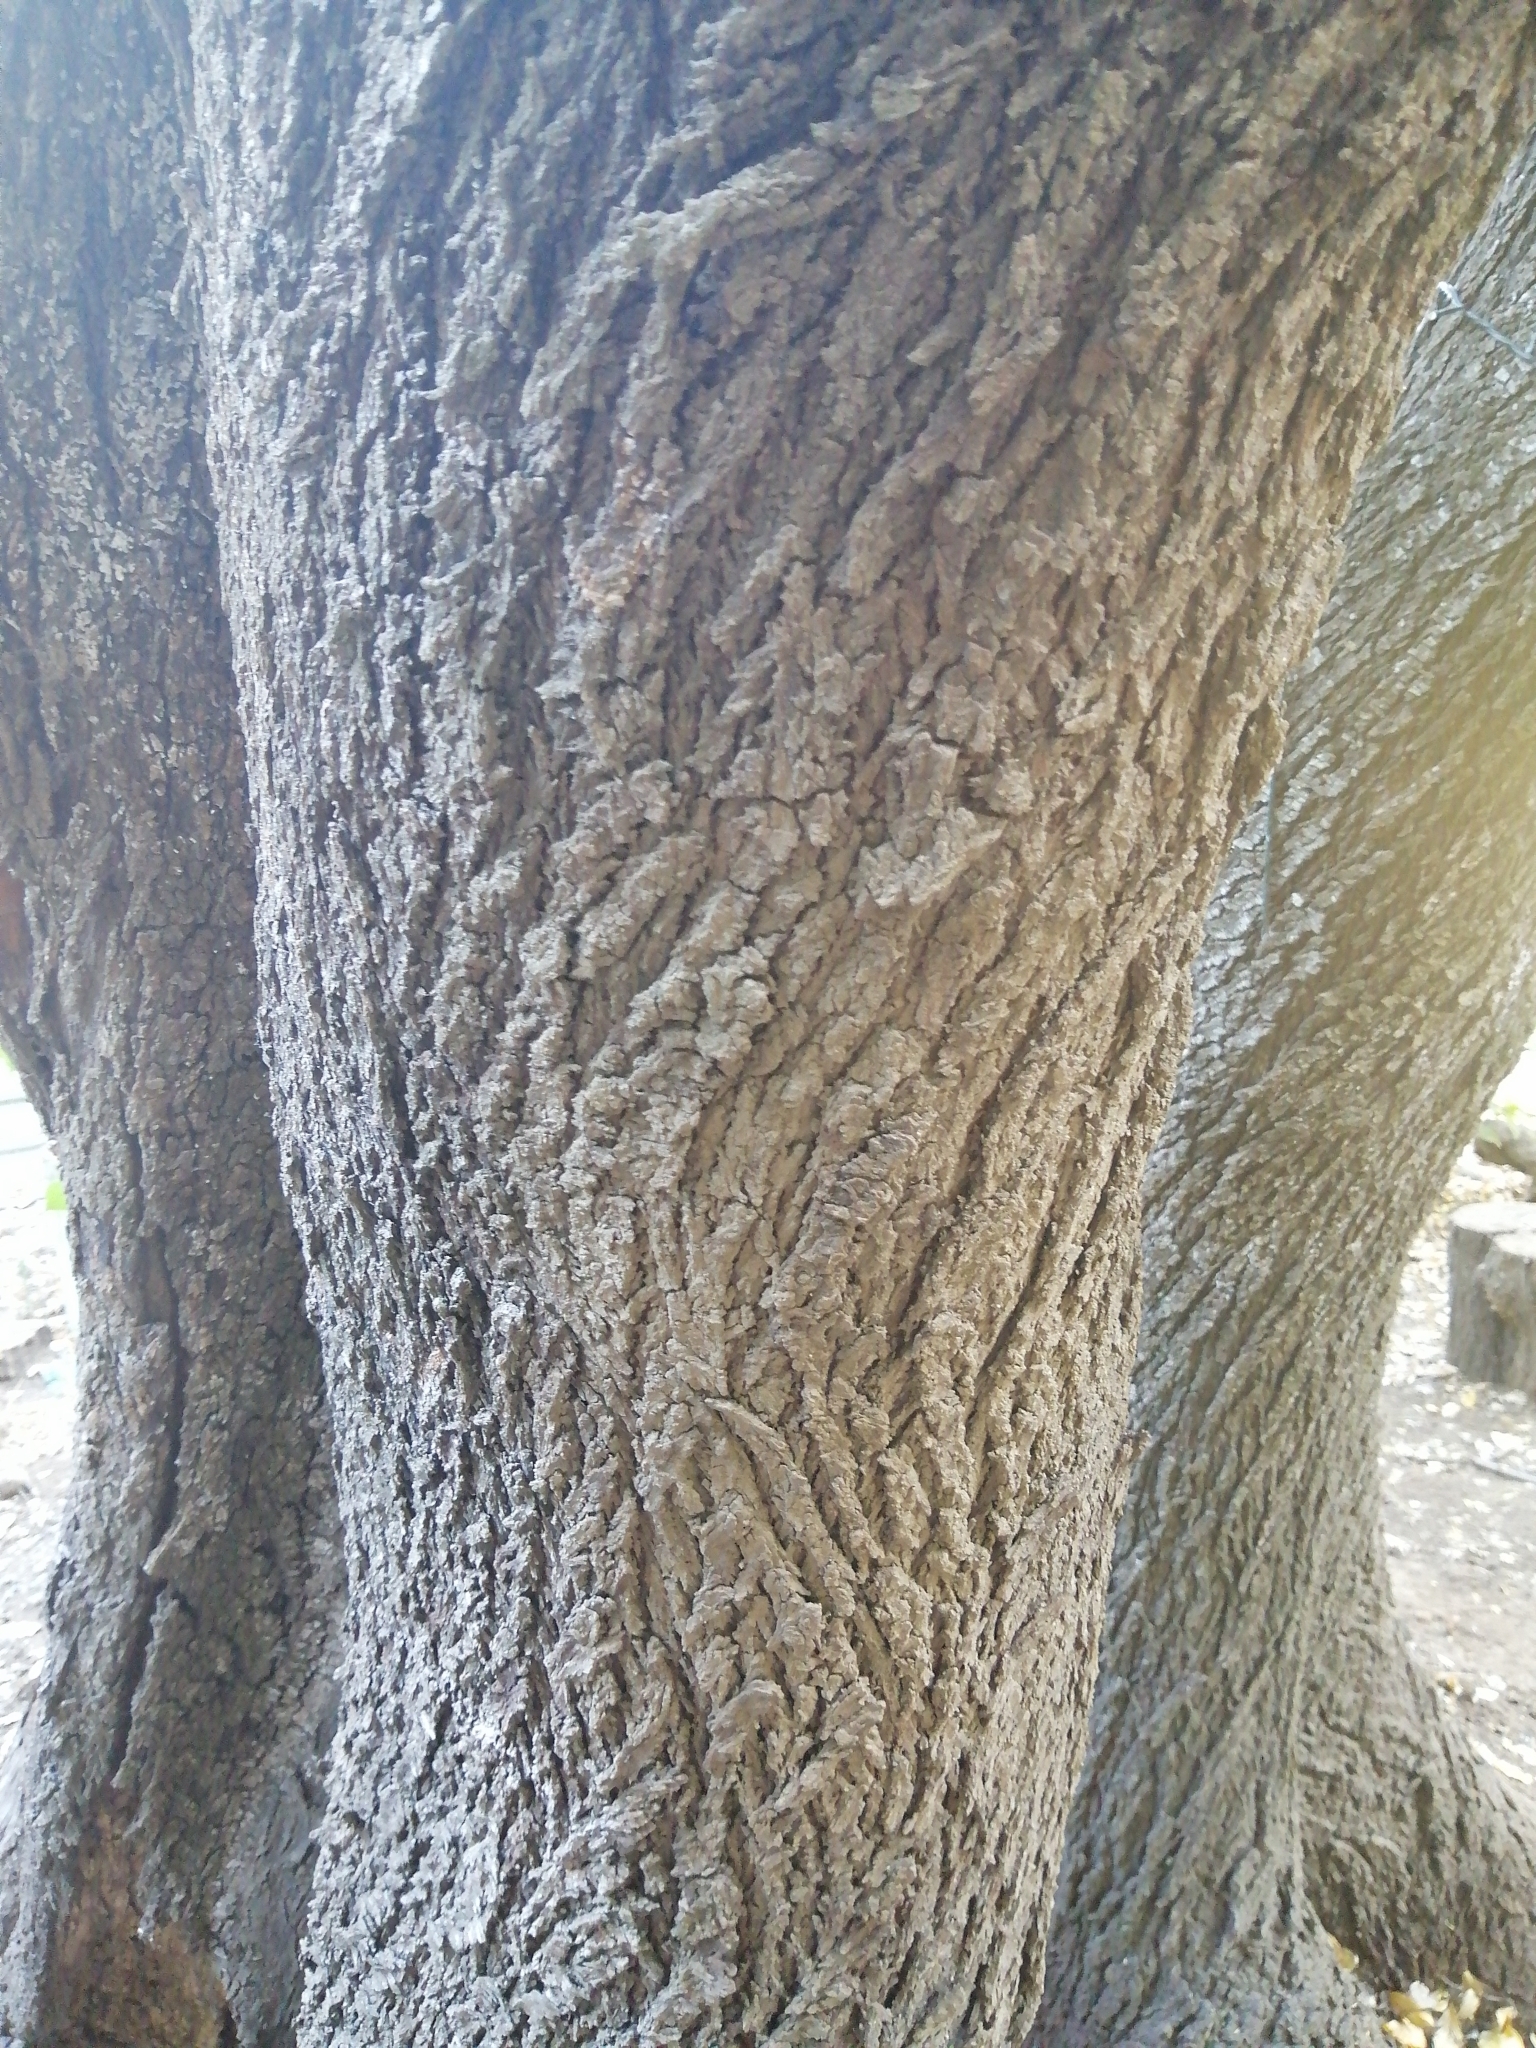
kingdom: Plantae
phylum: Tracheophyta
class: Magnoliopsida
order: Oxalidales
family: Elaeocarpaceae
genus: Aristotelia
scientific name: Aristotelia chilensis
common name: Maquei
